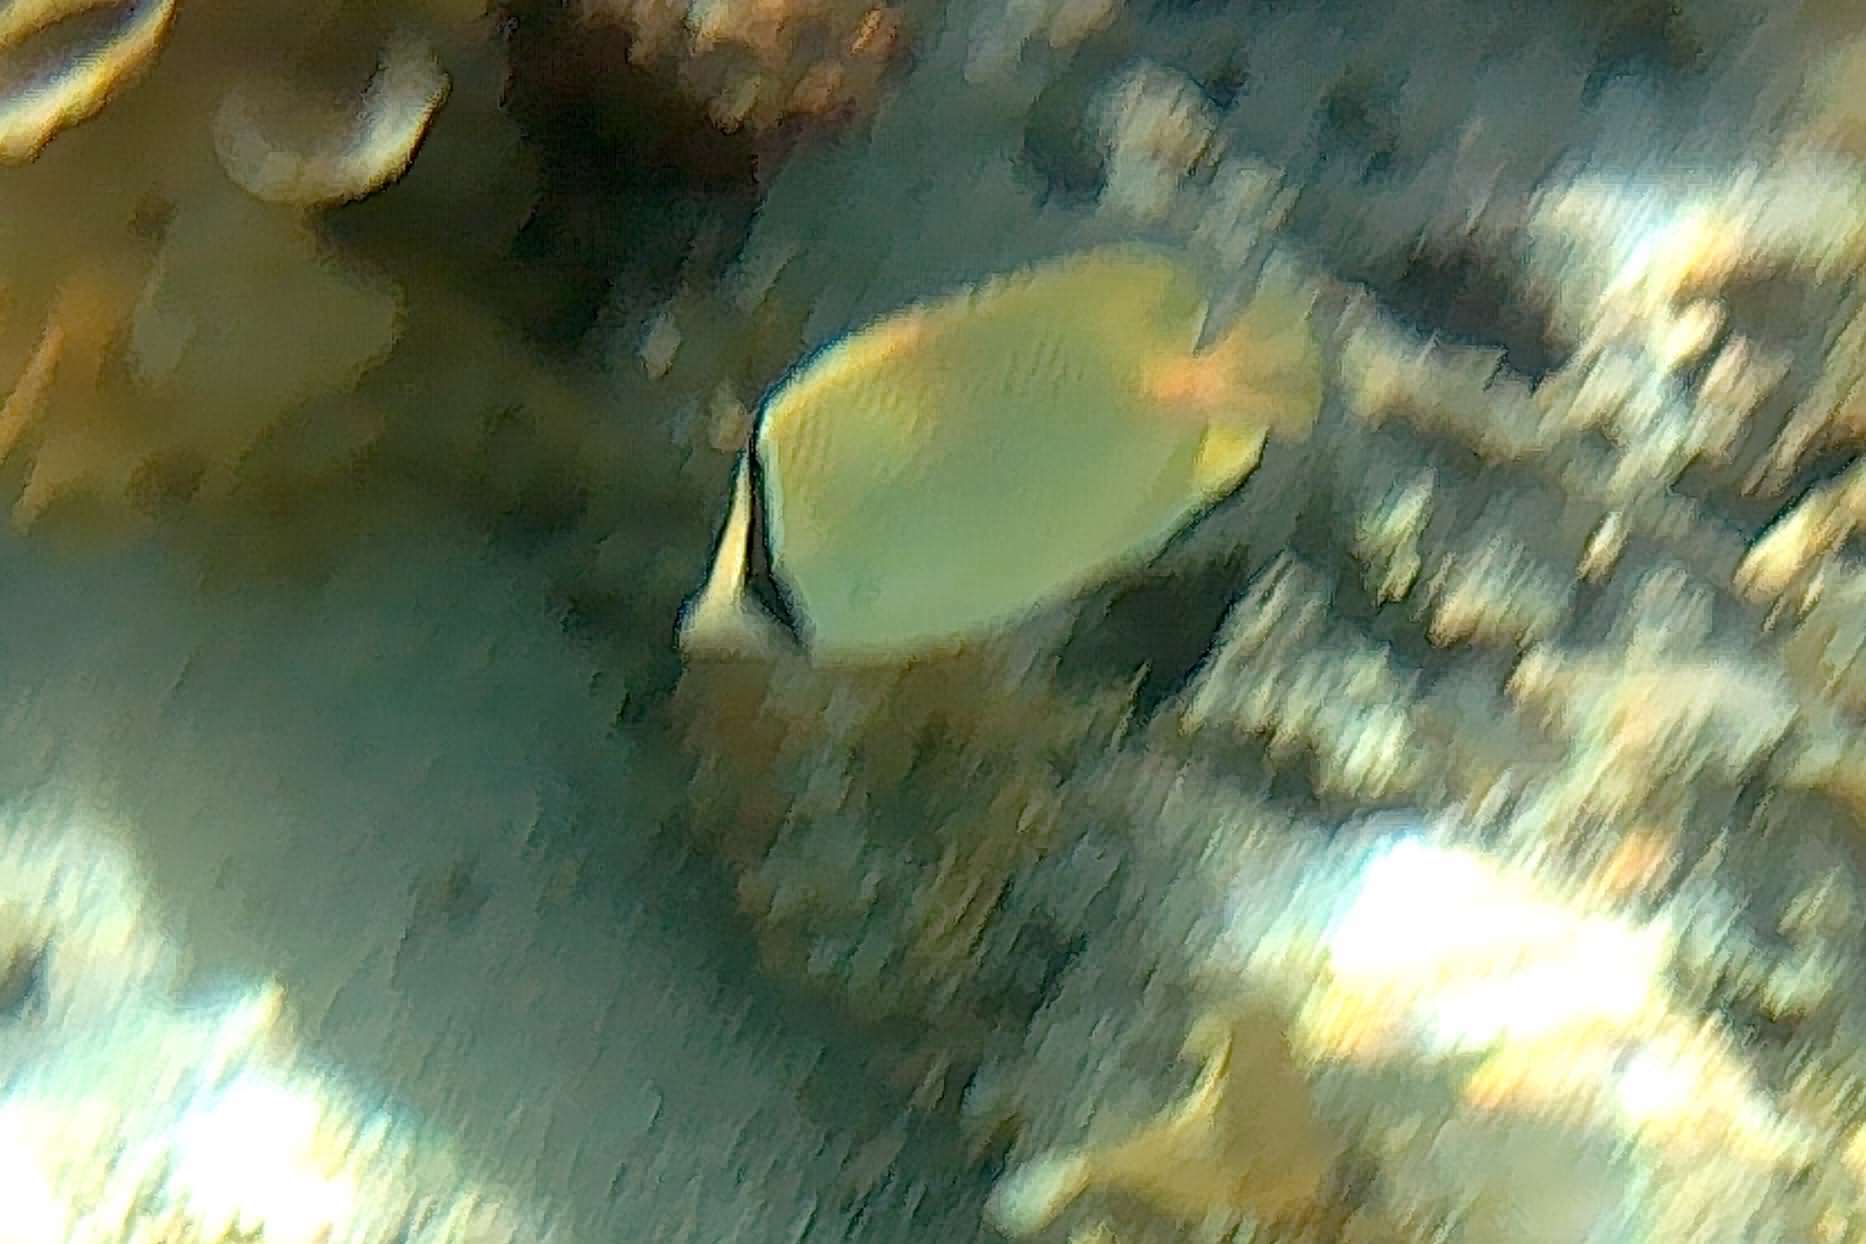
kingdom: Animalia
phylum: Chordata
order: Perciformes
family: Chaetodontidae
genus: Chaetodon
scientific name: Chaetodon citrinellus
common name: Speckled butterflyfish
